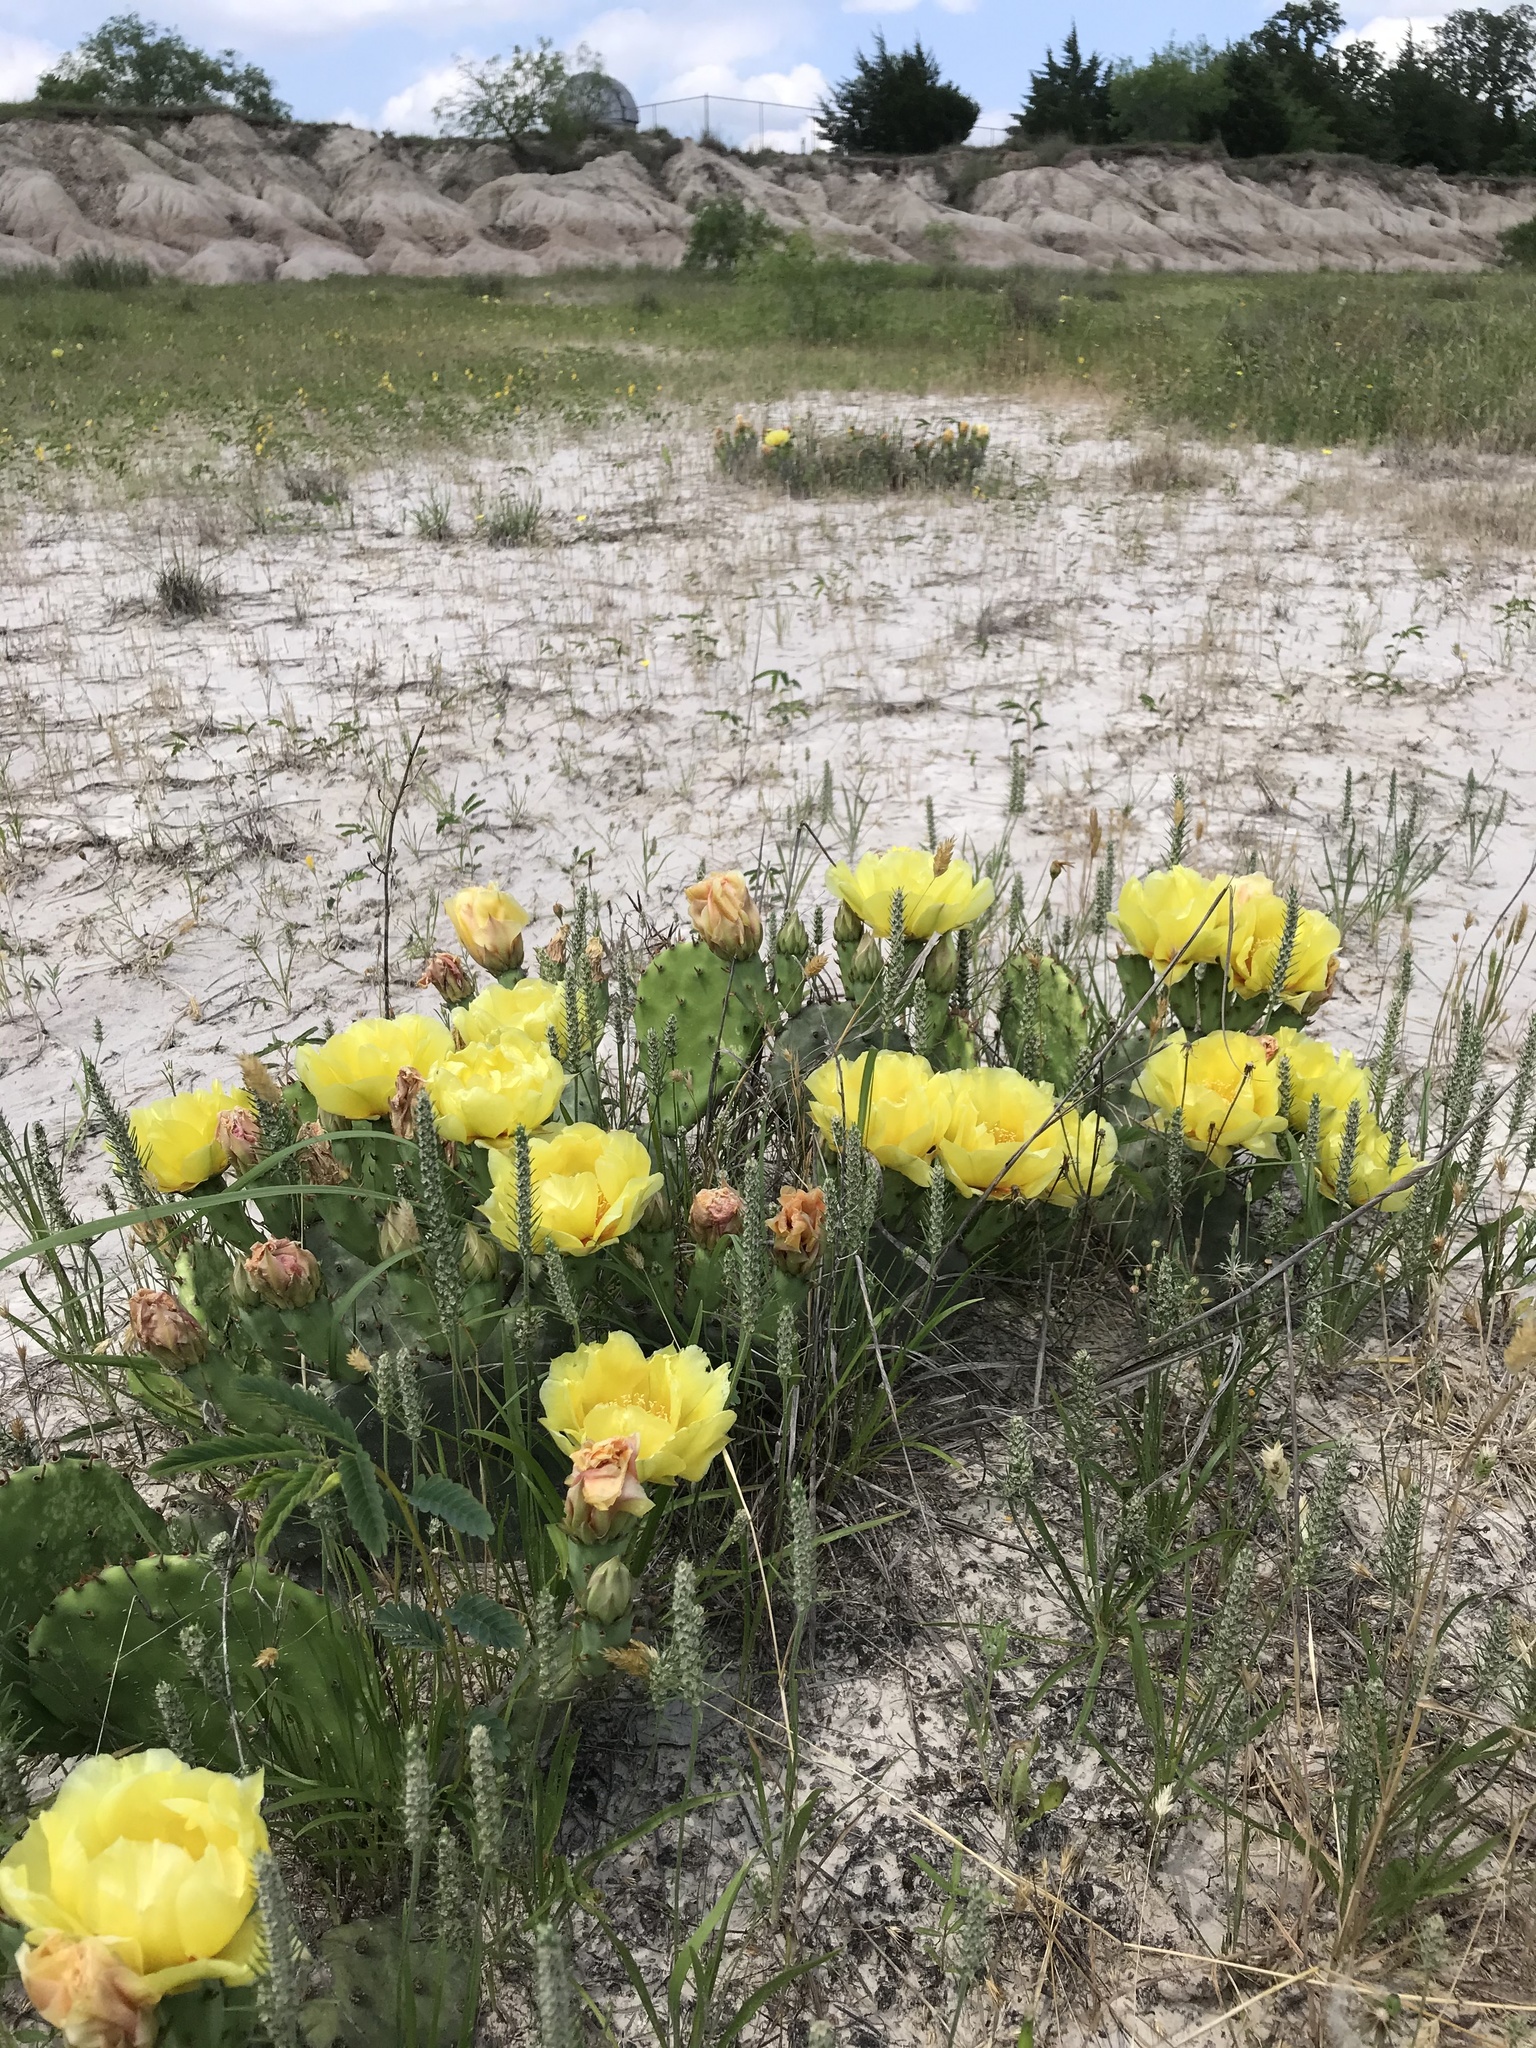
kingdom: Plantae
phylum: Tracheophyta
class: Magnoliopsida
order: Caryophyllales
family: Cactaceae
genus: Opuntia
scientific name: Opuntia macrorhiza
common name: Grassland pricklypear
